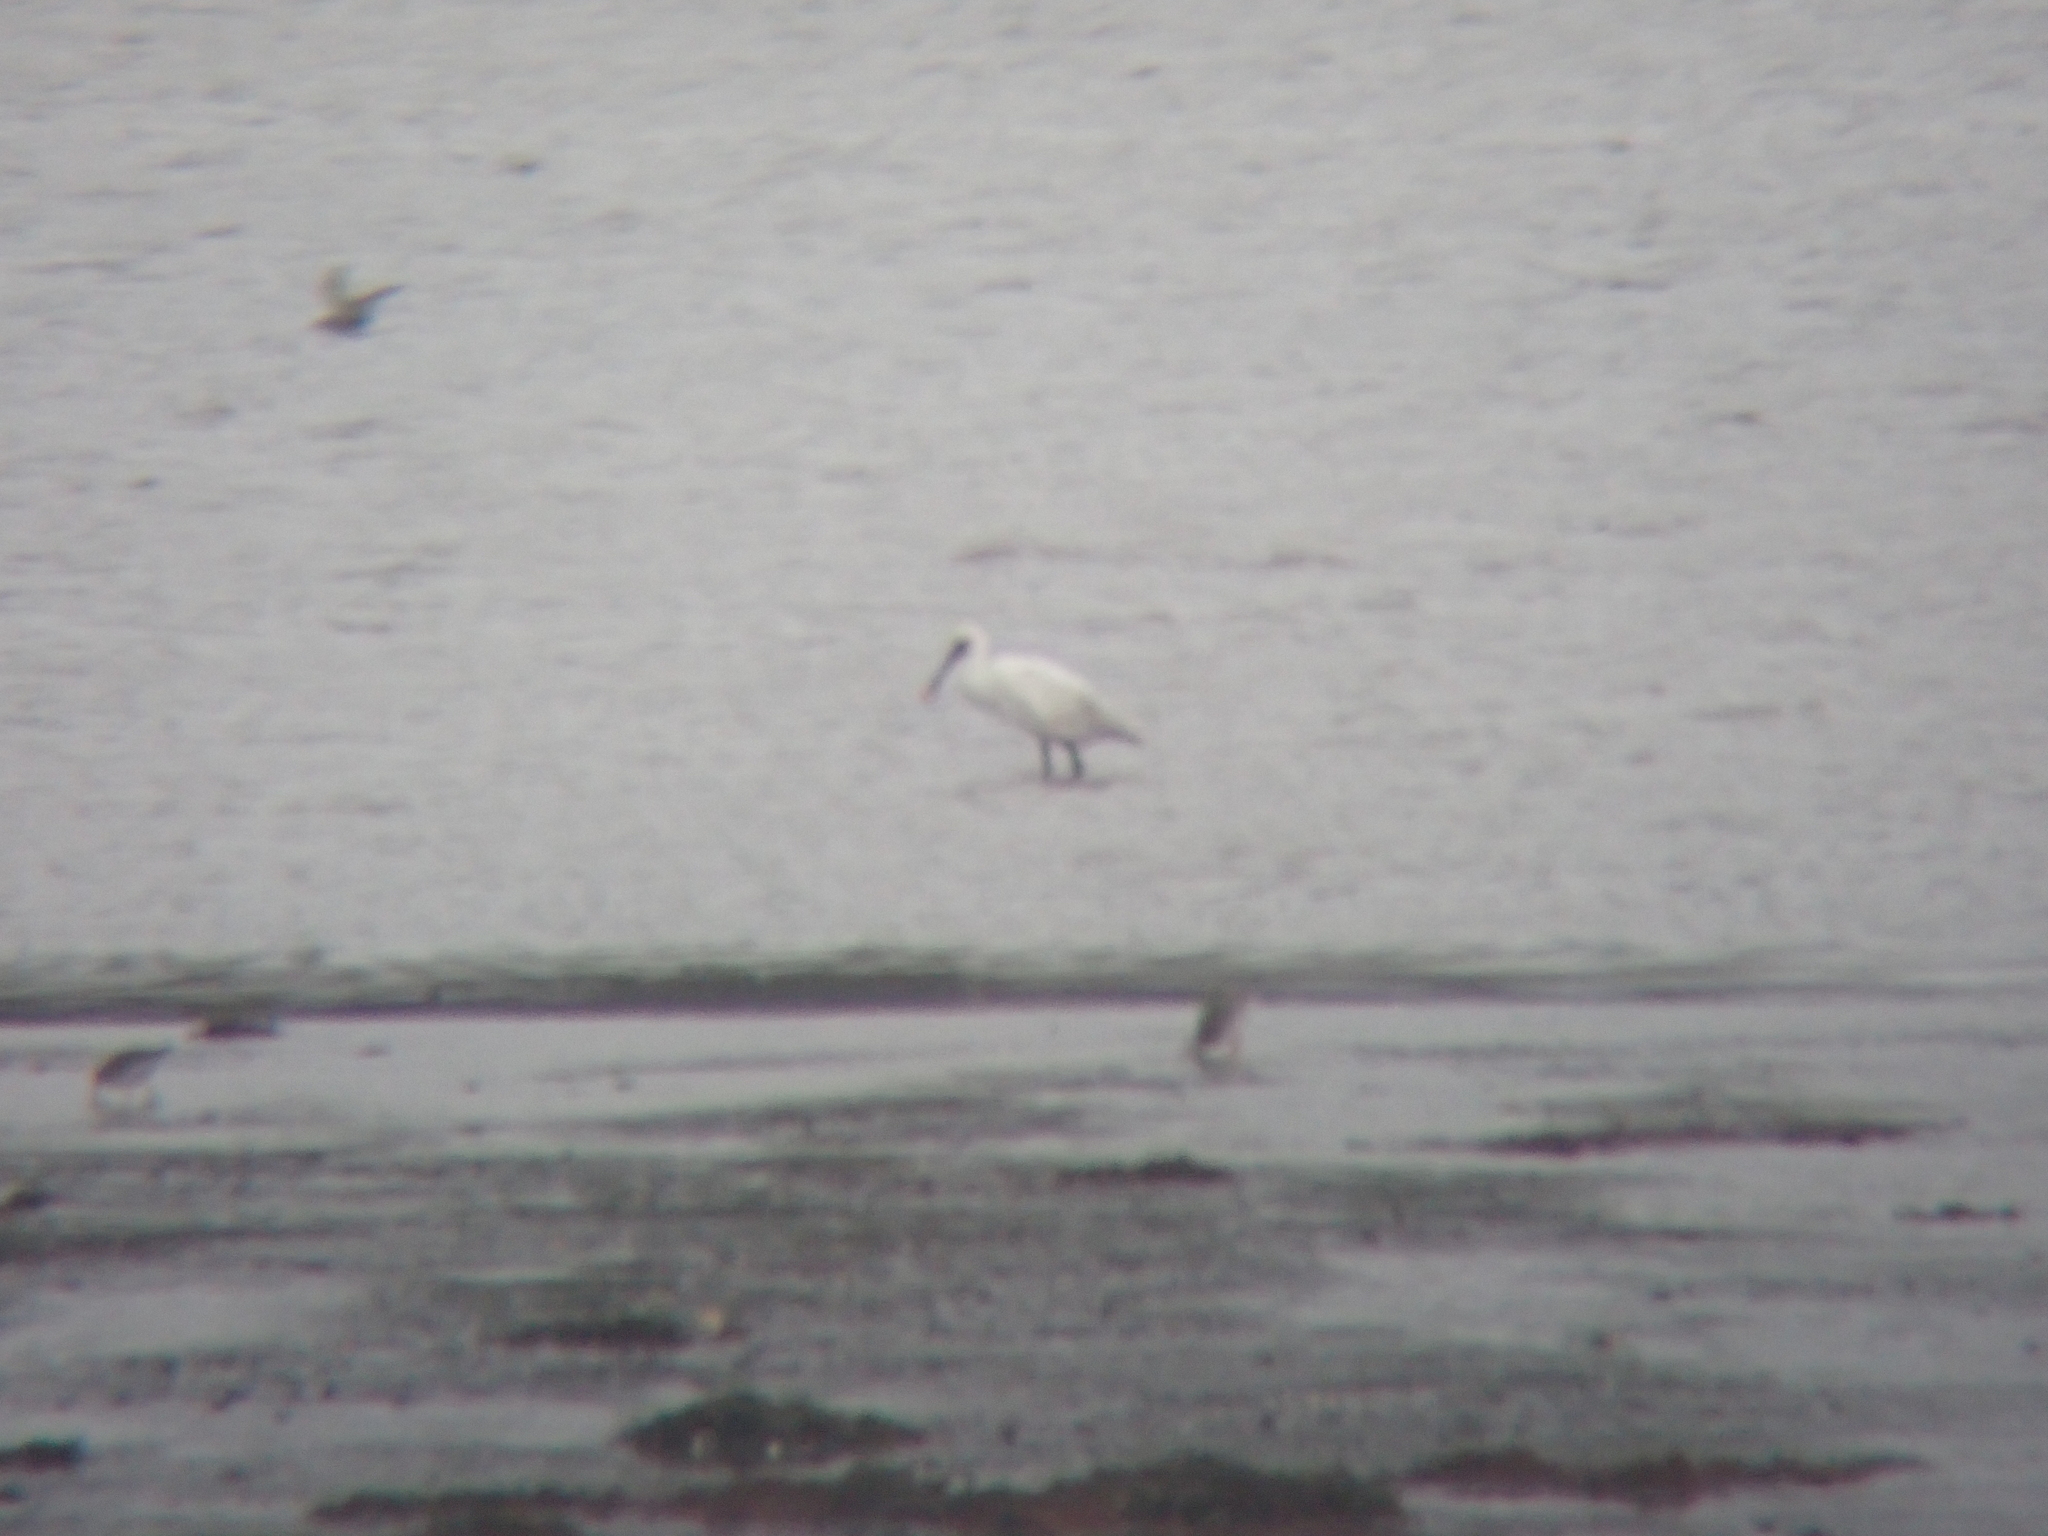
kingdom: Animalia
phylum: Chordata
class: Aves
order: Pelecaniformes
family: Threskiornithidae
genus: Platalea
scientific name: Platalea leucorodia
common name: Eurasian spoonbill
